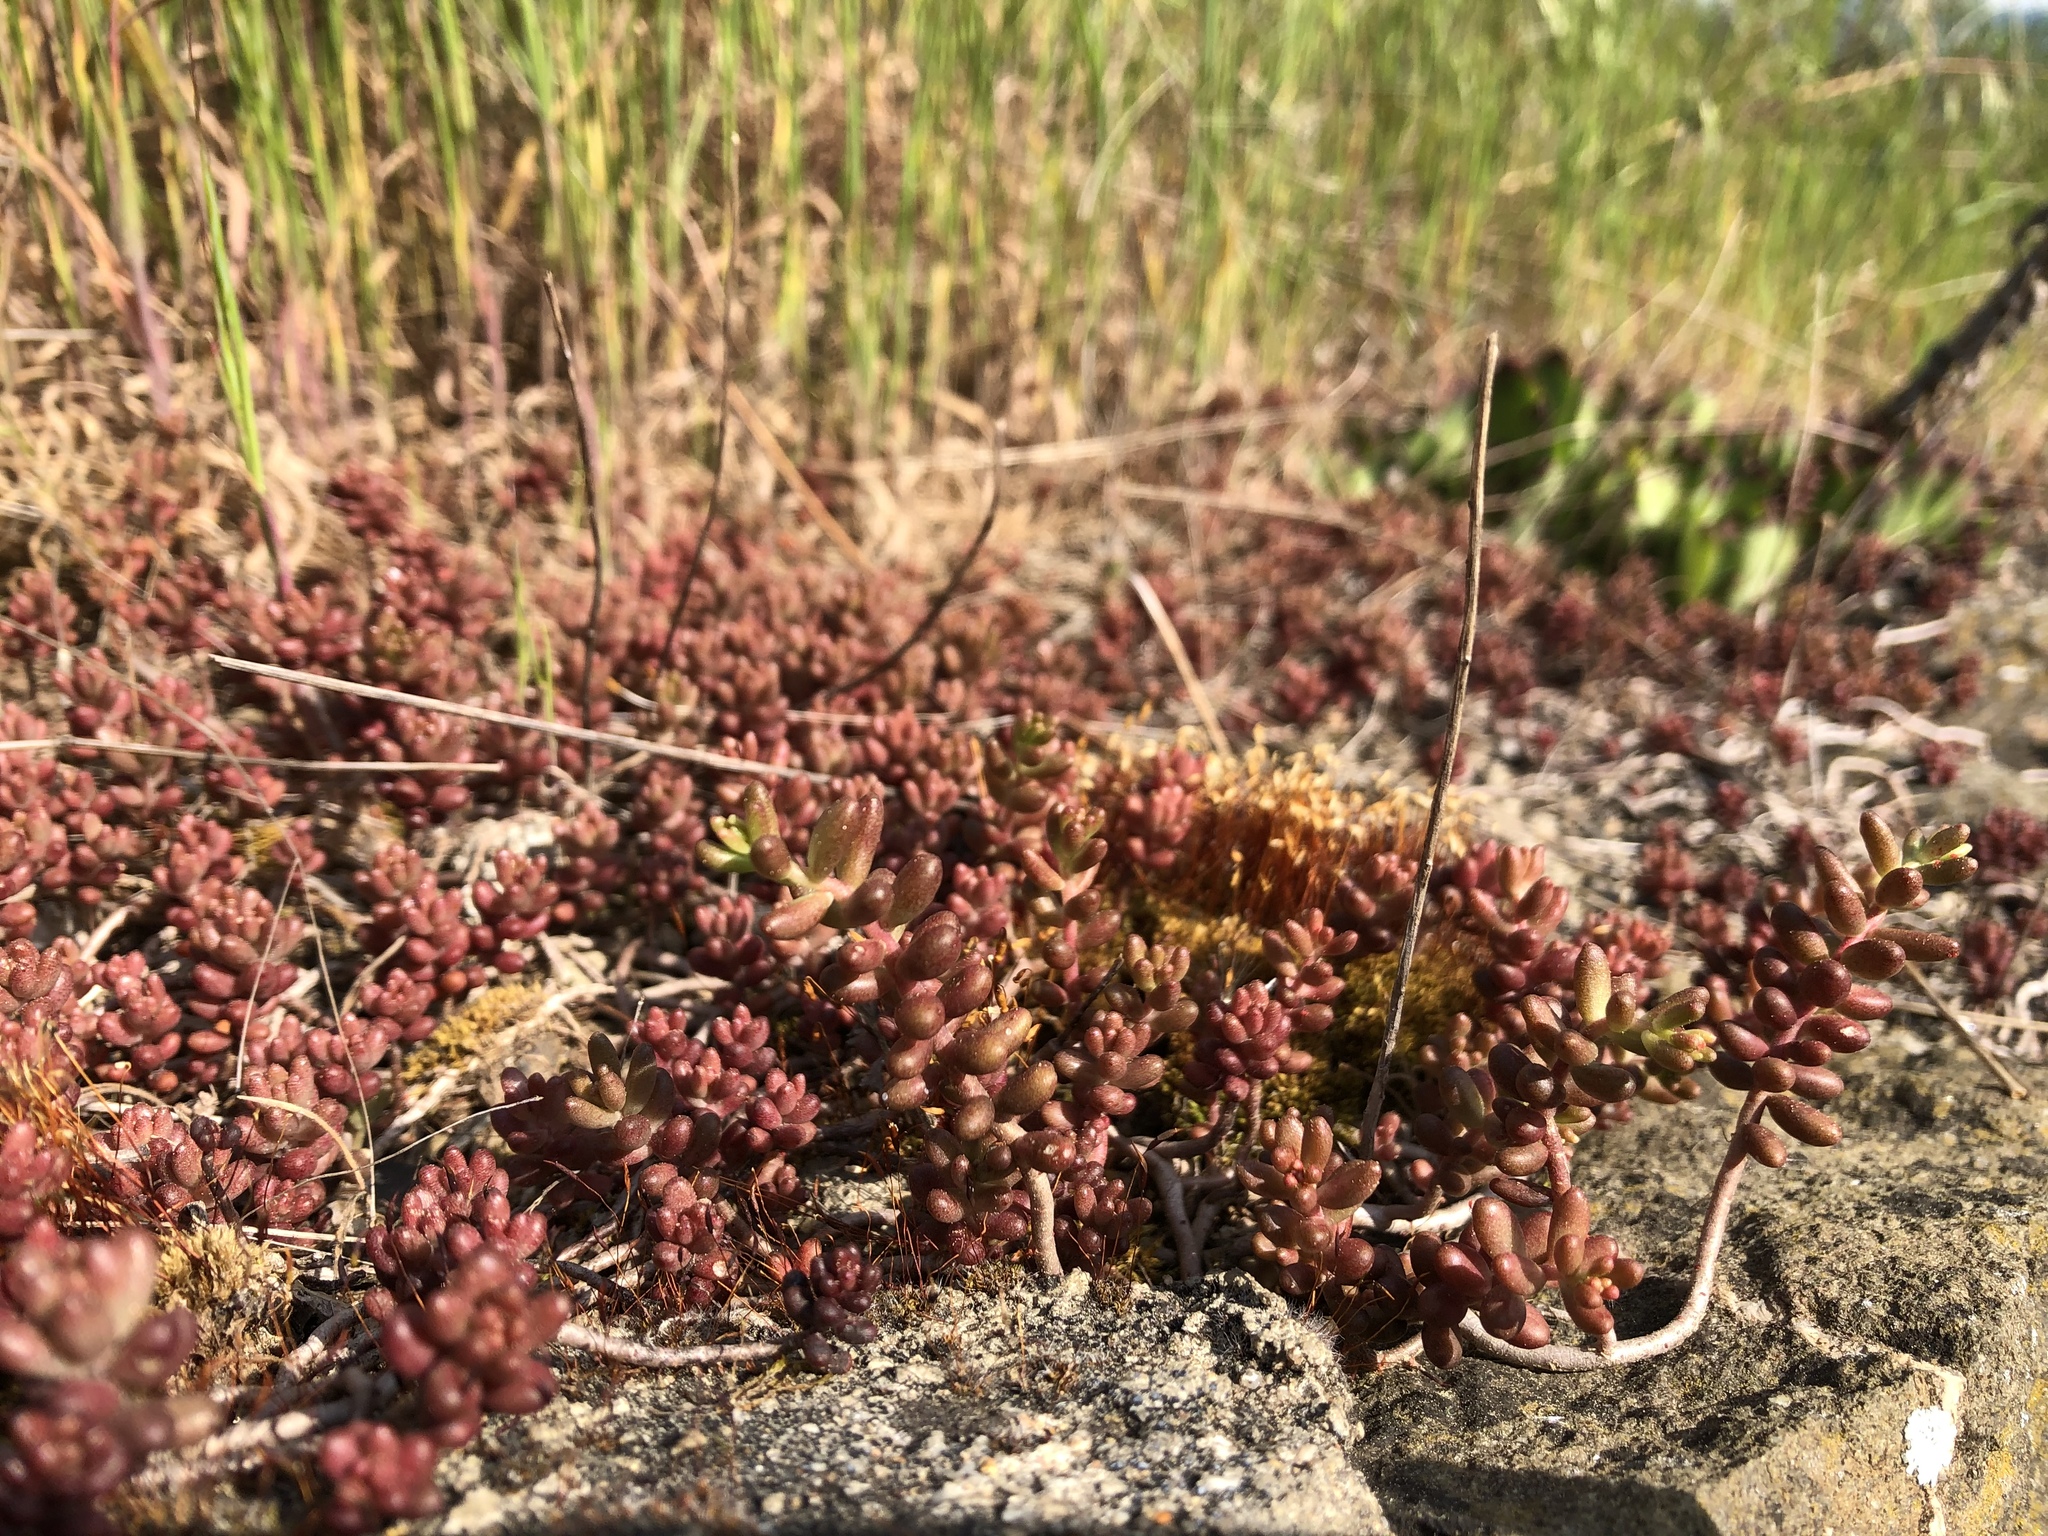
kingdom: Plantae
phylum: Tracheophyta
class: Magnoliopsida
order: Saxifragales
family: Crassulaceae
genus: Sedum
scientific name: Sedum album
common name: White stonecrop
